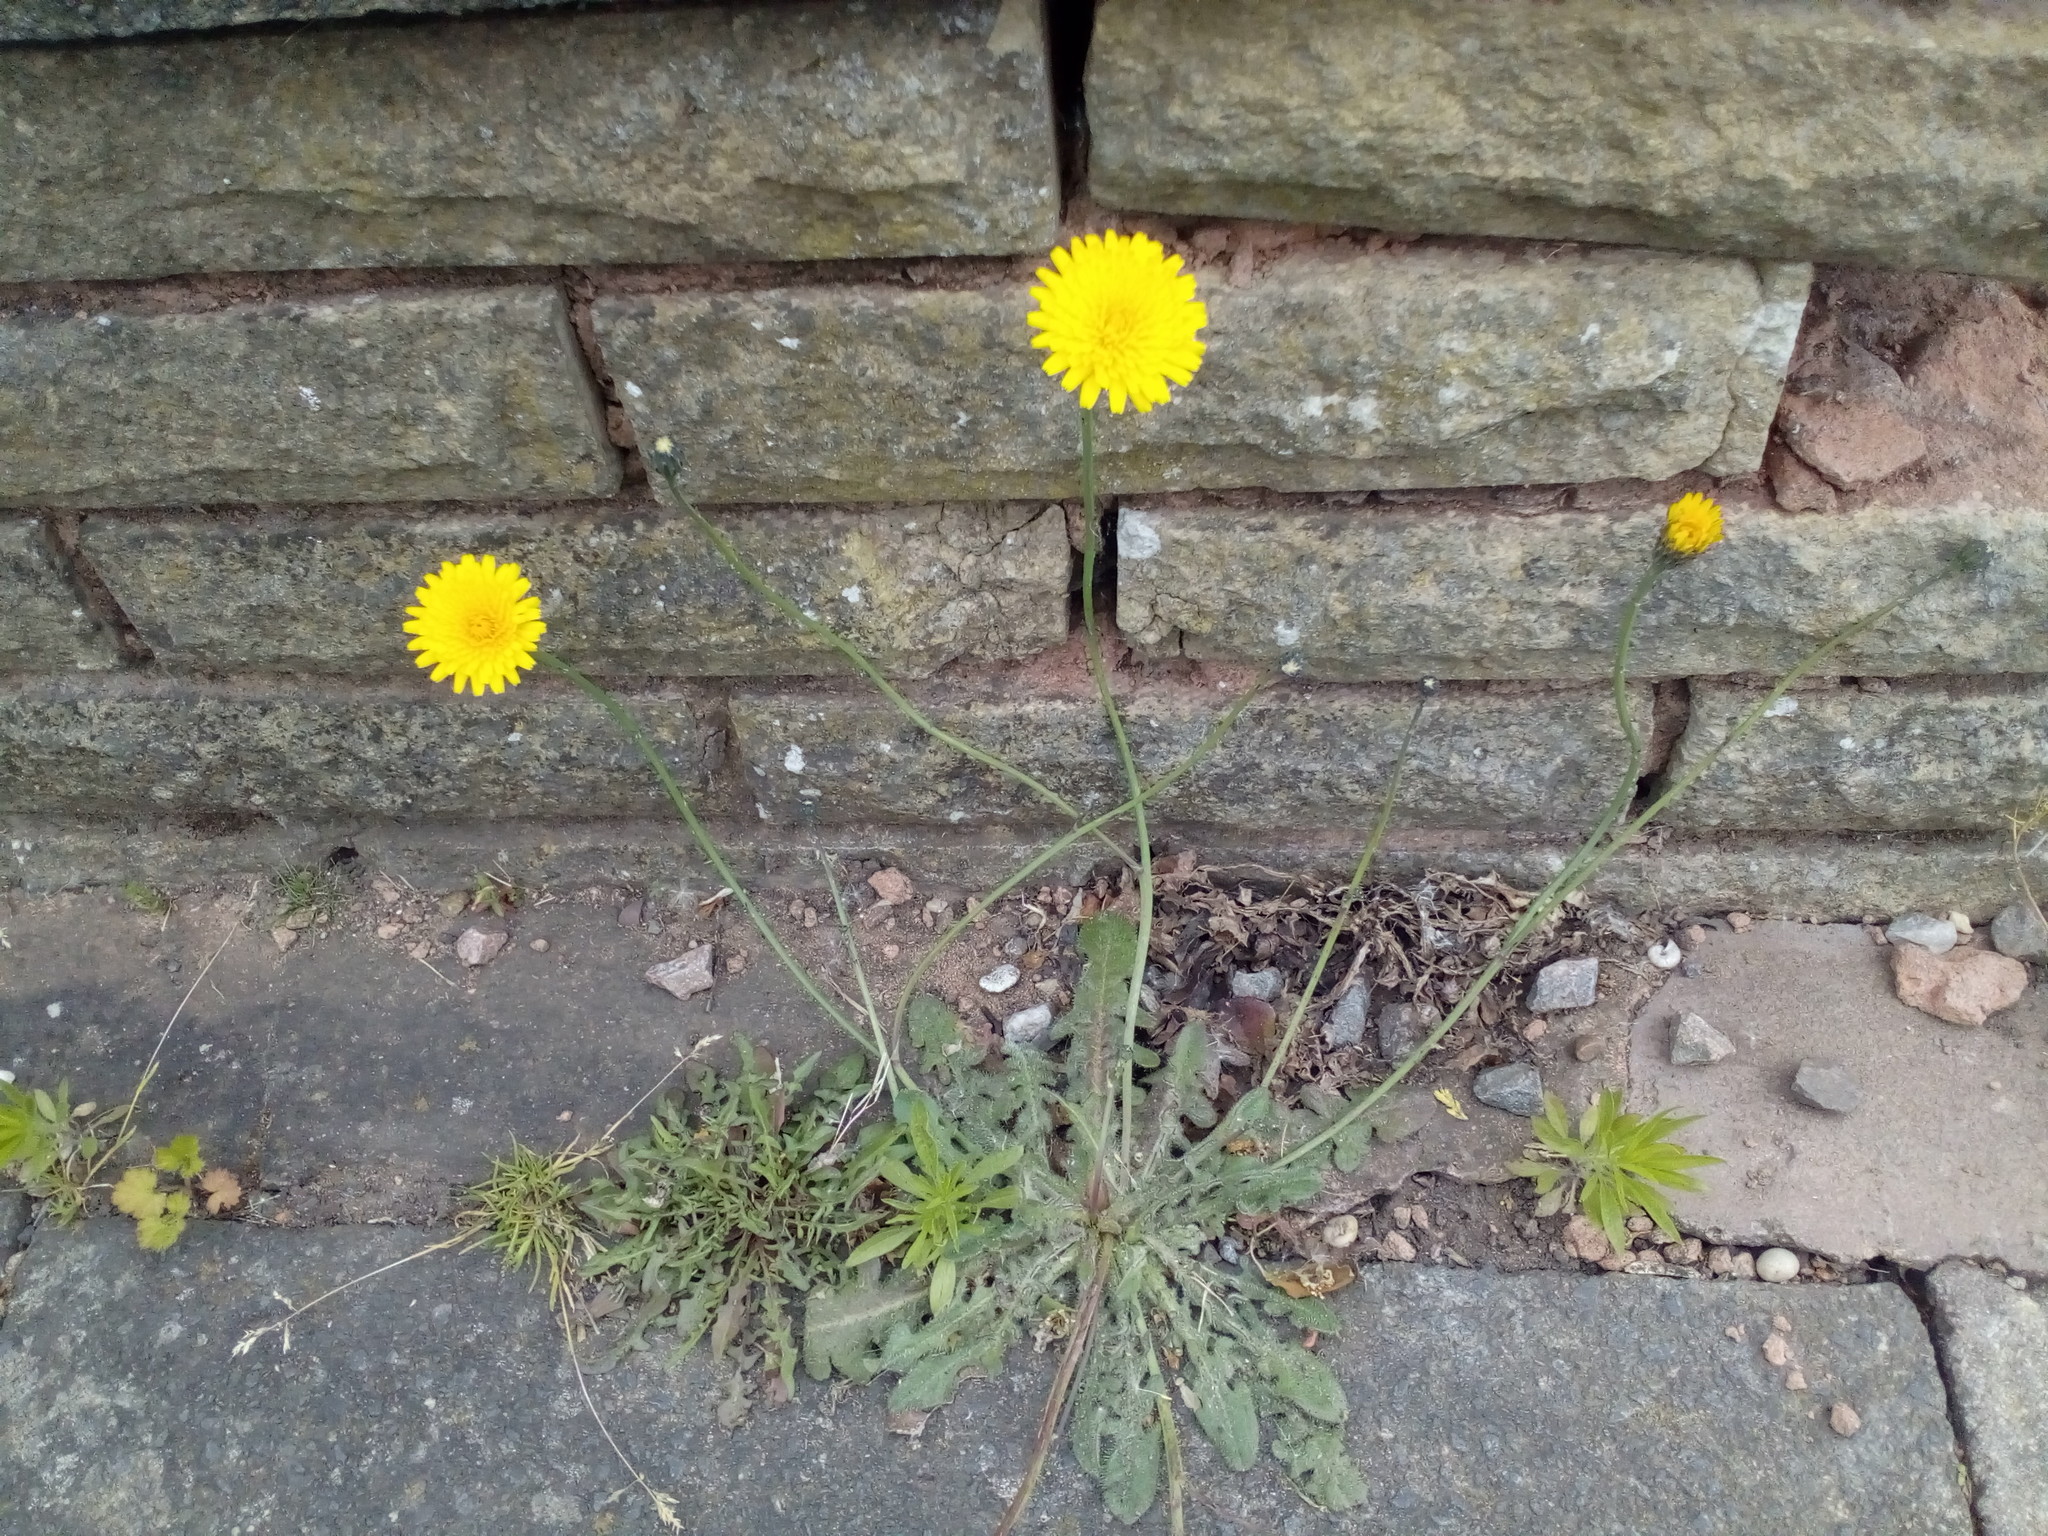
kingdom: Plantae
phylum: Tracheophyta
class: Magnoliopsida
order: Asterales
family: Asteraceae
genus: Hypochaeris
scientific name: Hypochaeris radicata
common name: Flatweed
